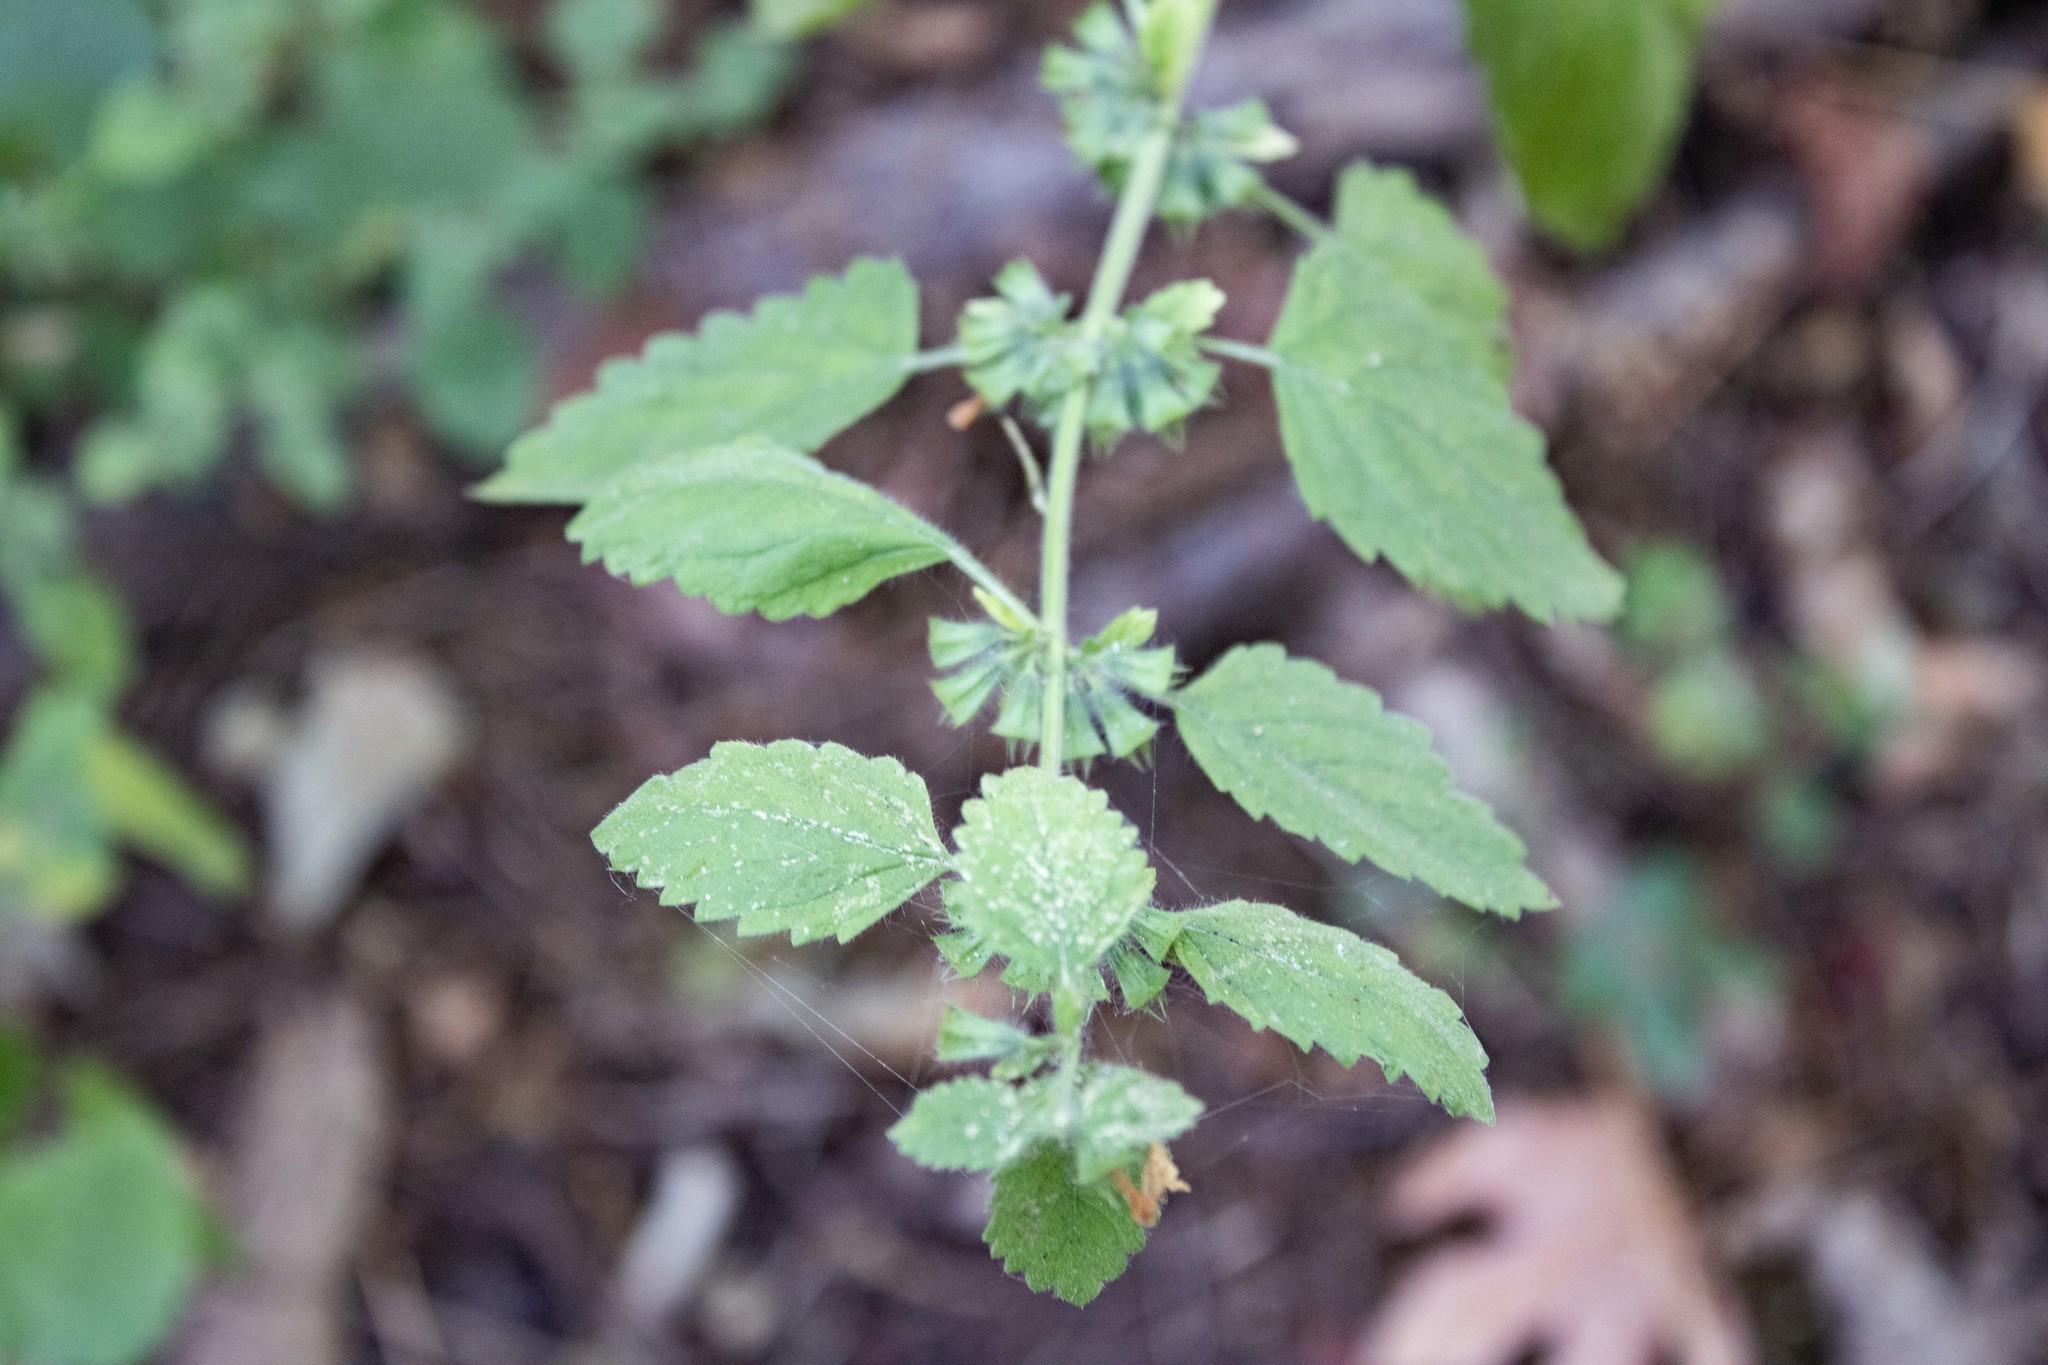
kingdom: Plantae
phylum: Tracheophyta
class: Magnoliopsida
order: Lamiales
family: Lamiaceae
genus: Melissa
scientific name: Melissa officinalis
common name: Balm
